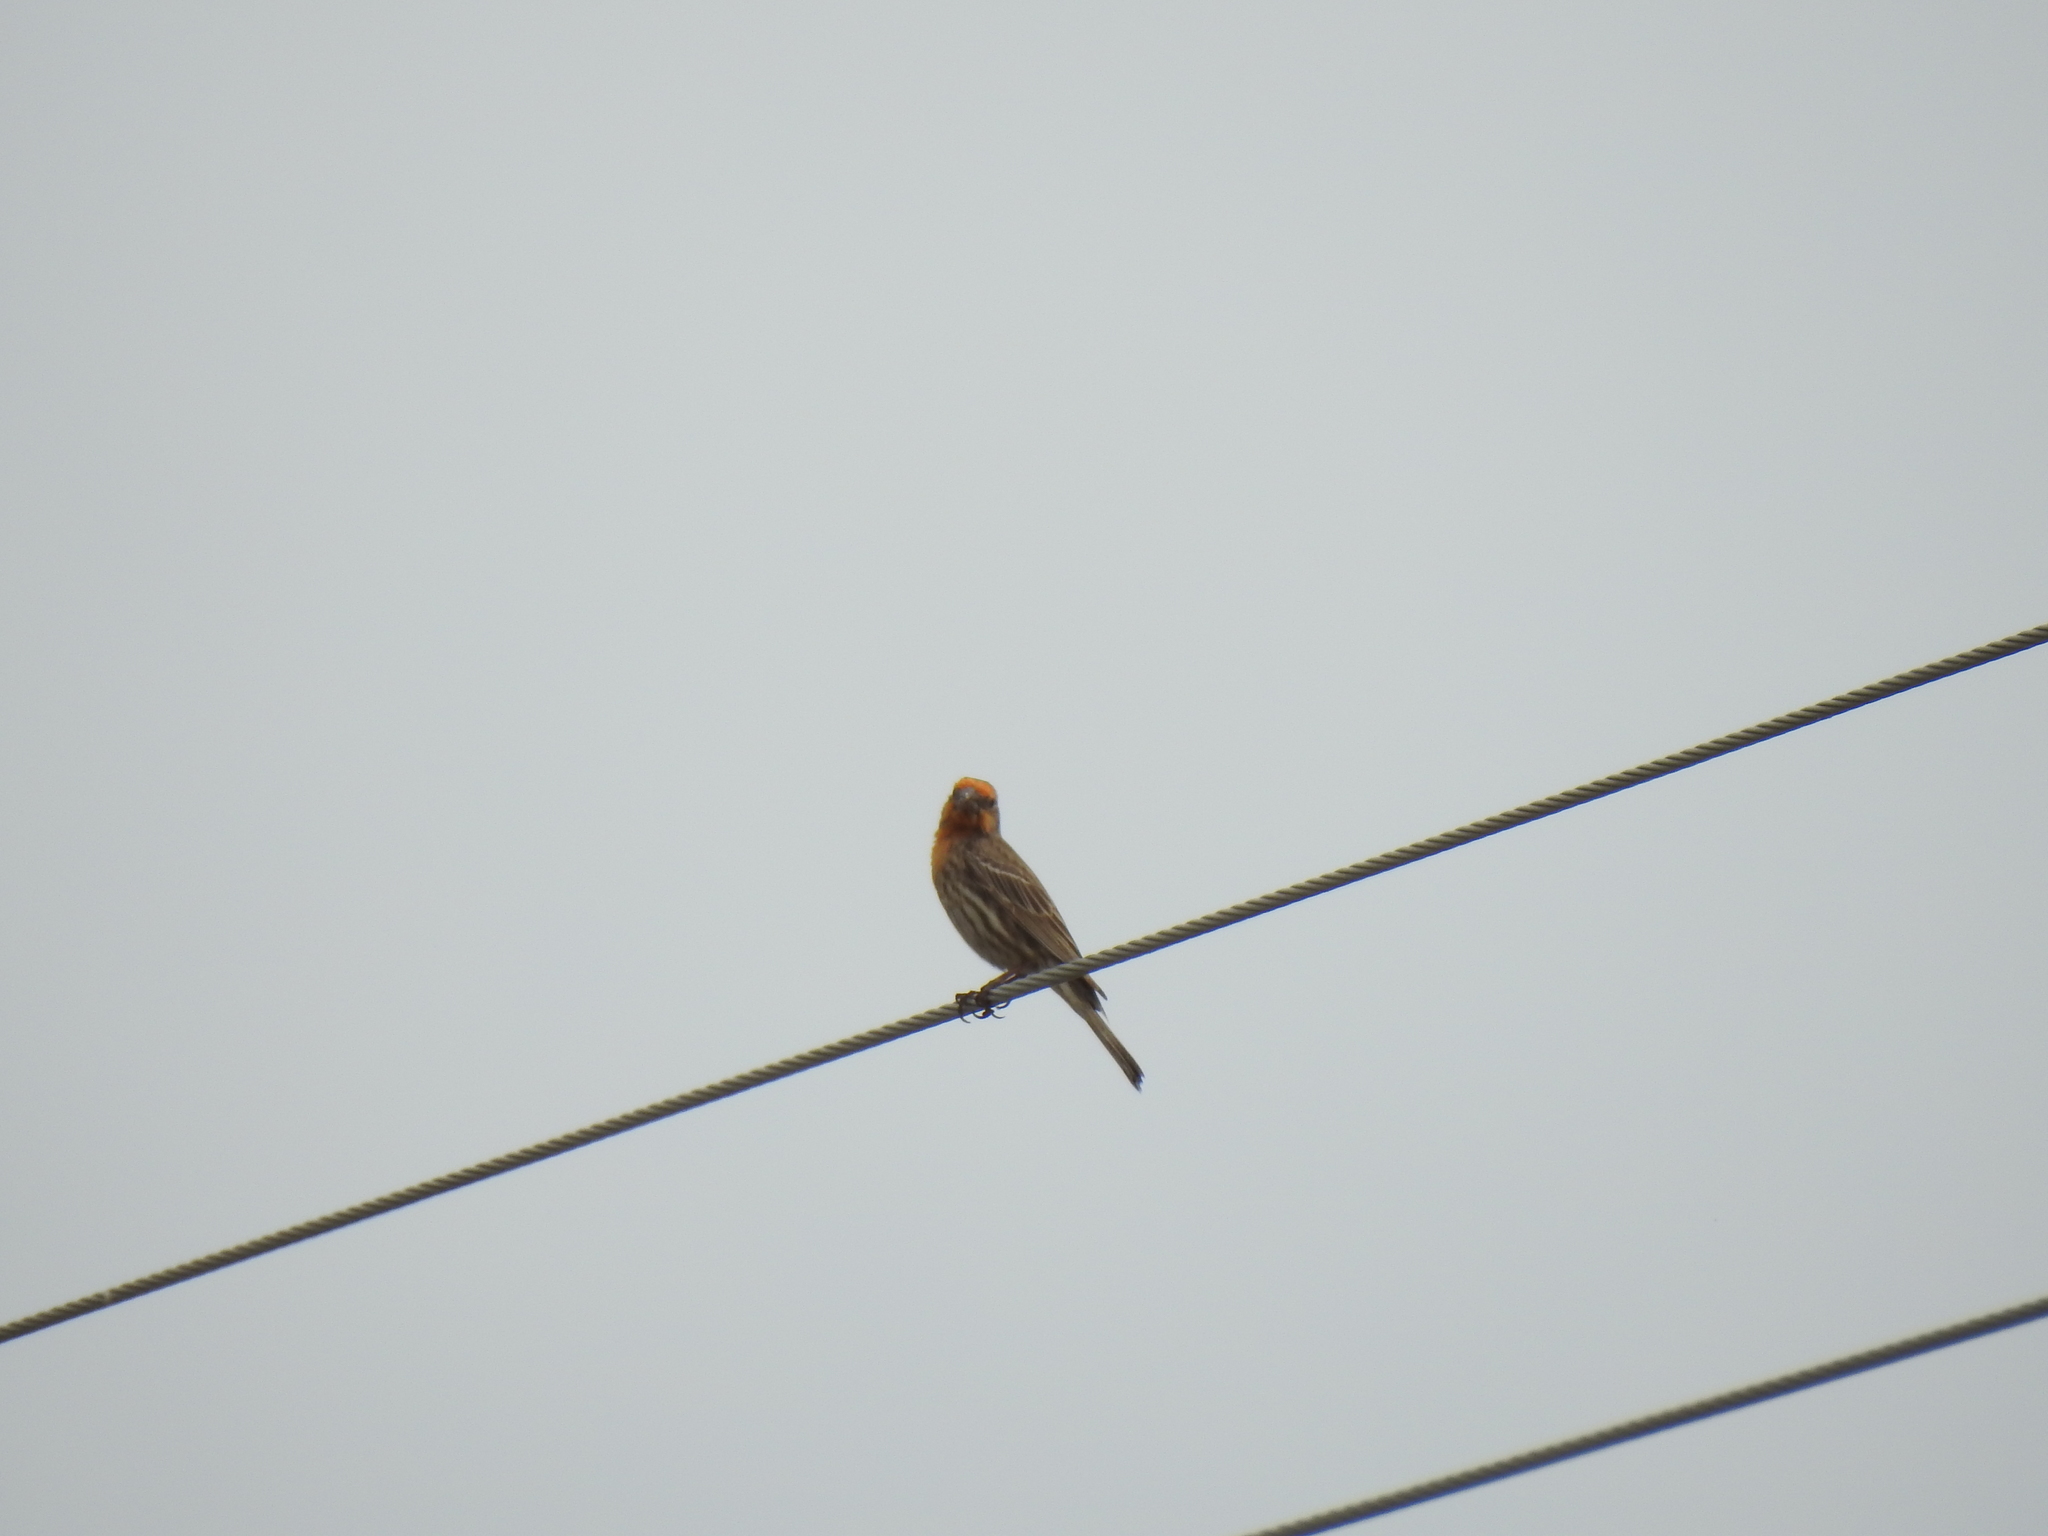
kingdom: Animalia
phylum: Chordata
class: Aves
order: Passeriformes
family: Fringillidae
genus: Haemorhous
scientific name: Haemorhous mexicanus
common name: House finch
